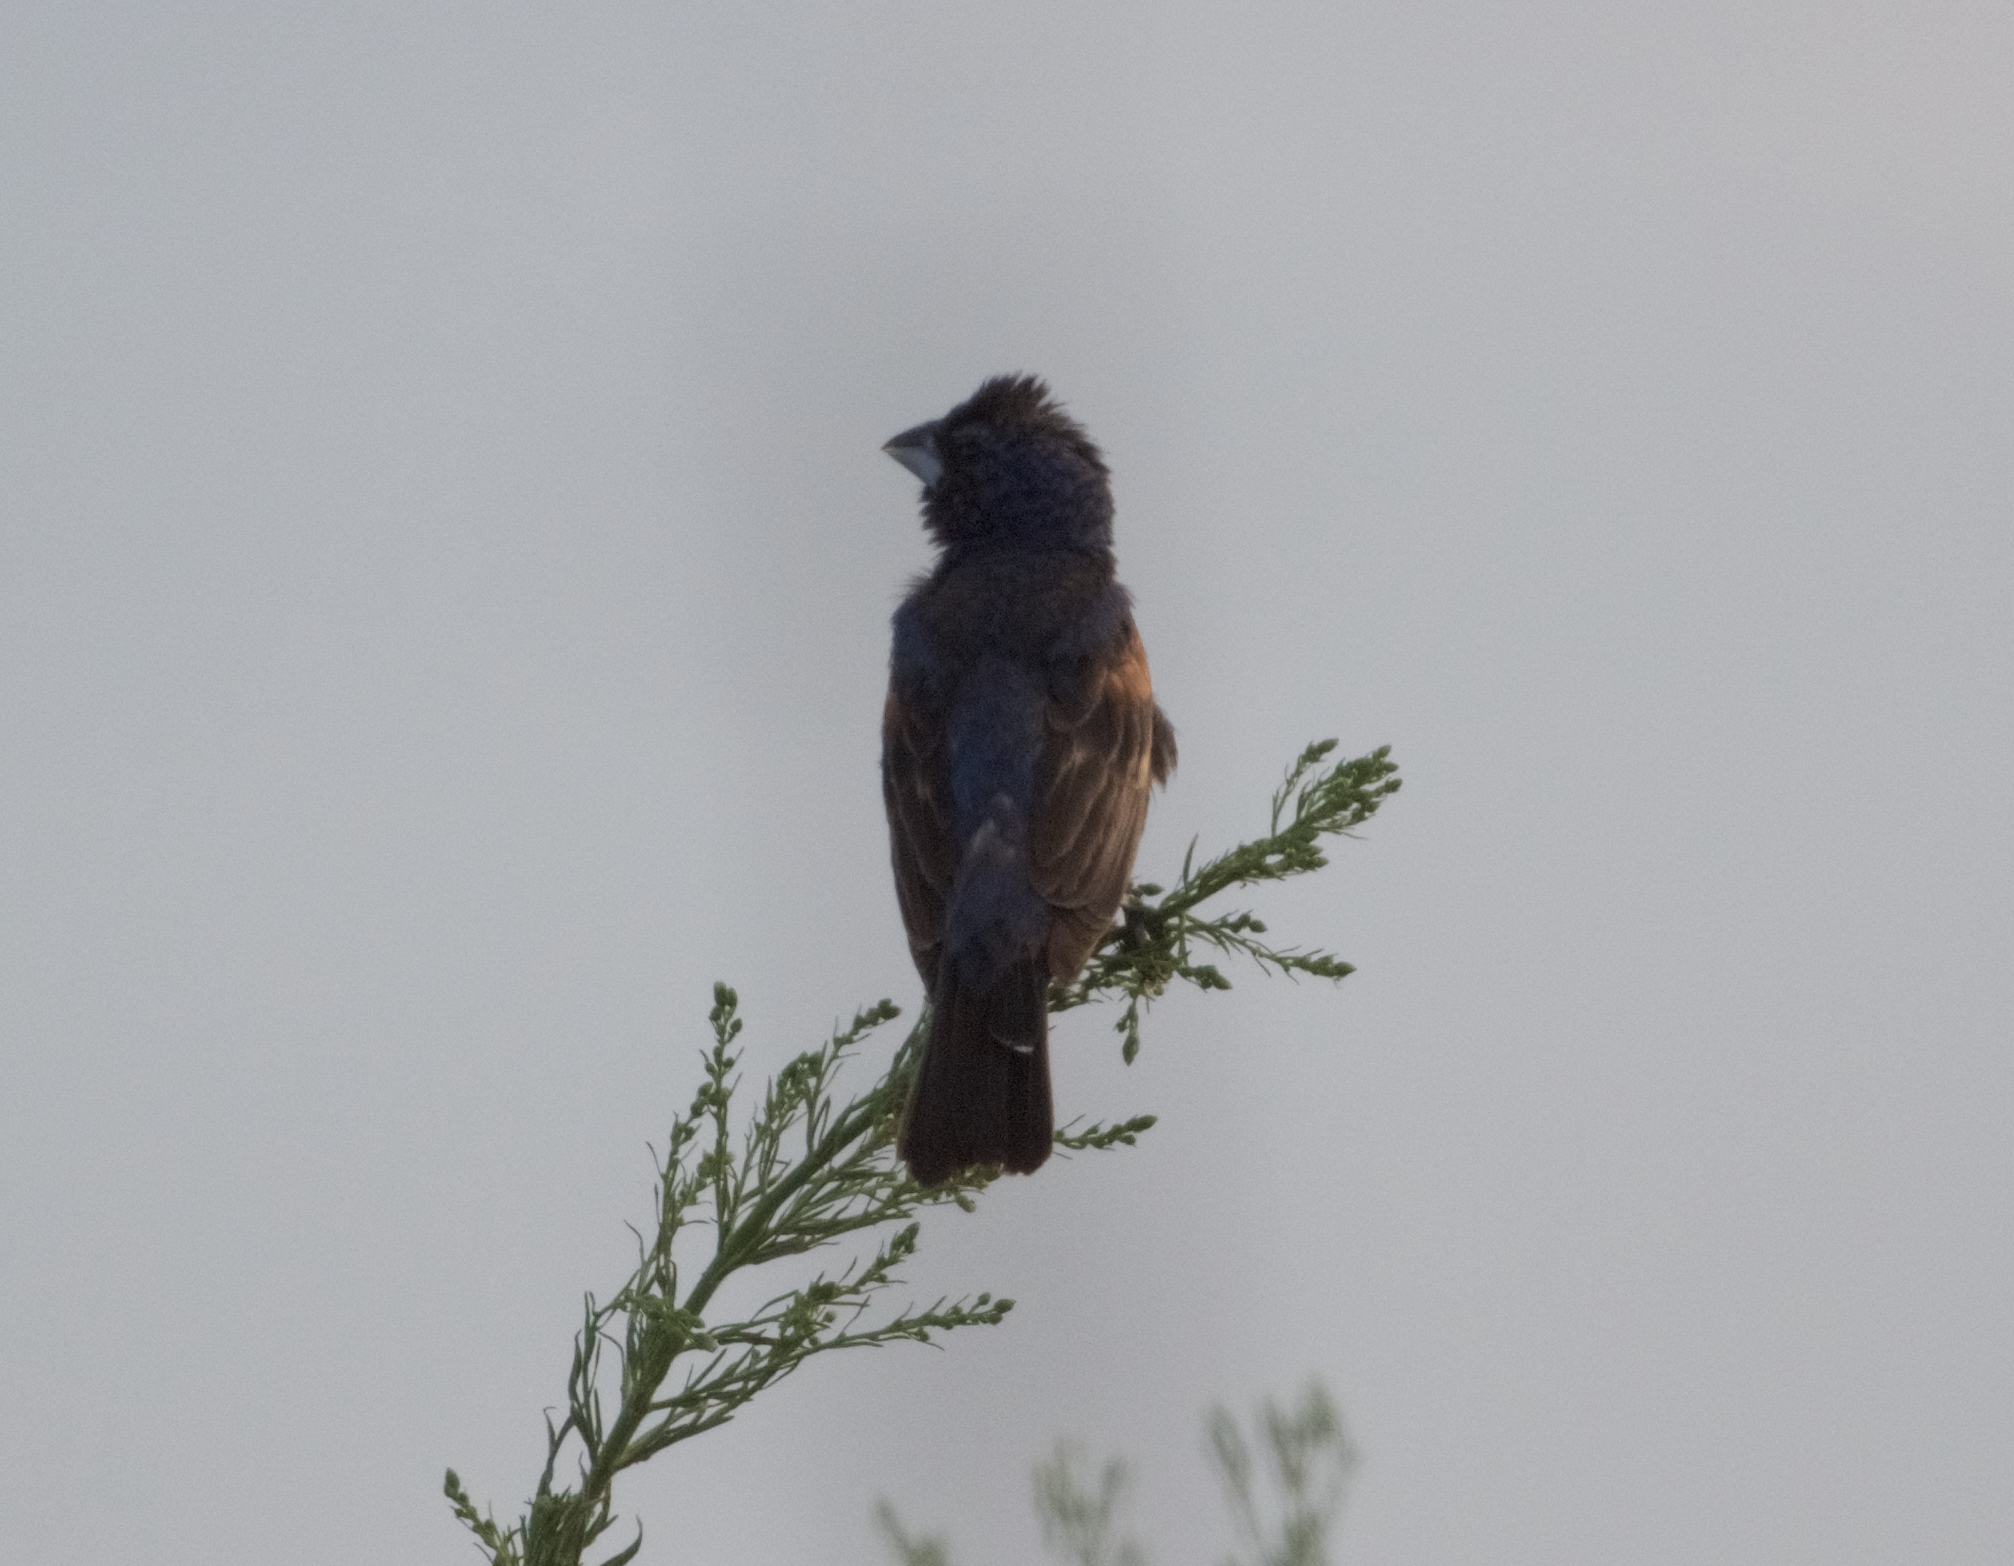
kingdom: Animalia
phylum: Chordata
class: Aves
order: Passeriformes
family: Cardinalidae
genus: Passerina
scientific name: Passerina caerulea
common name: Blue grosbeak
